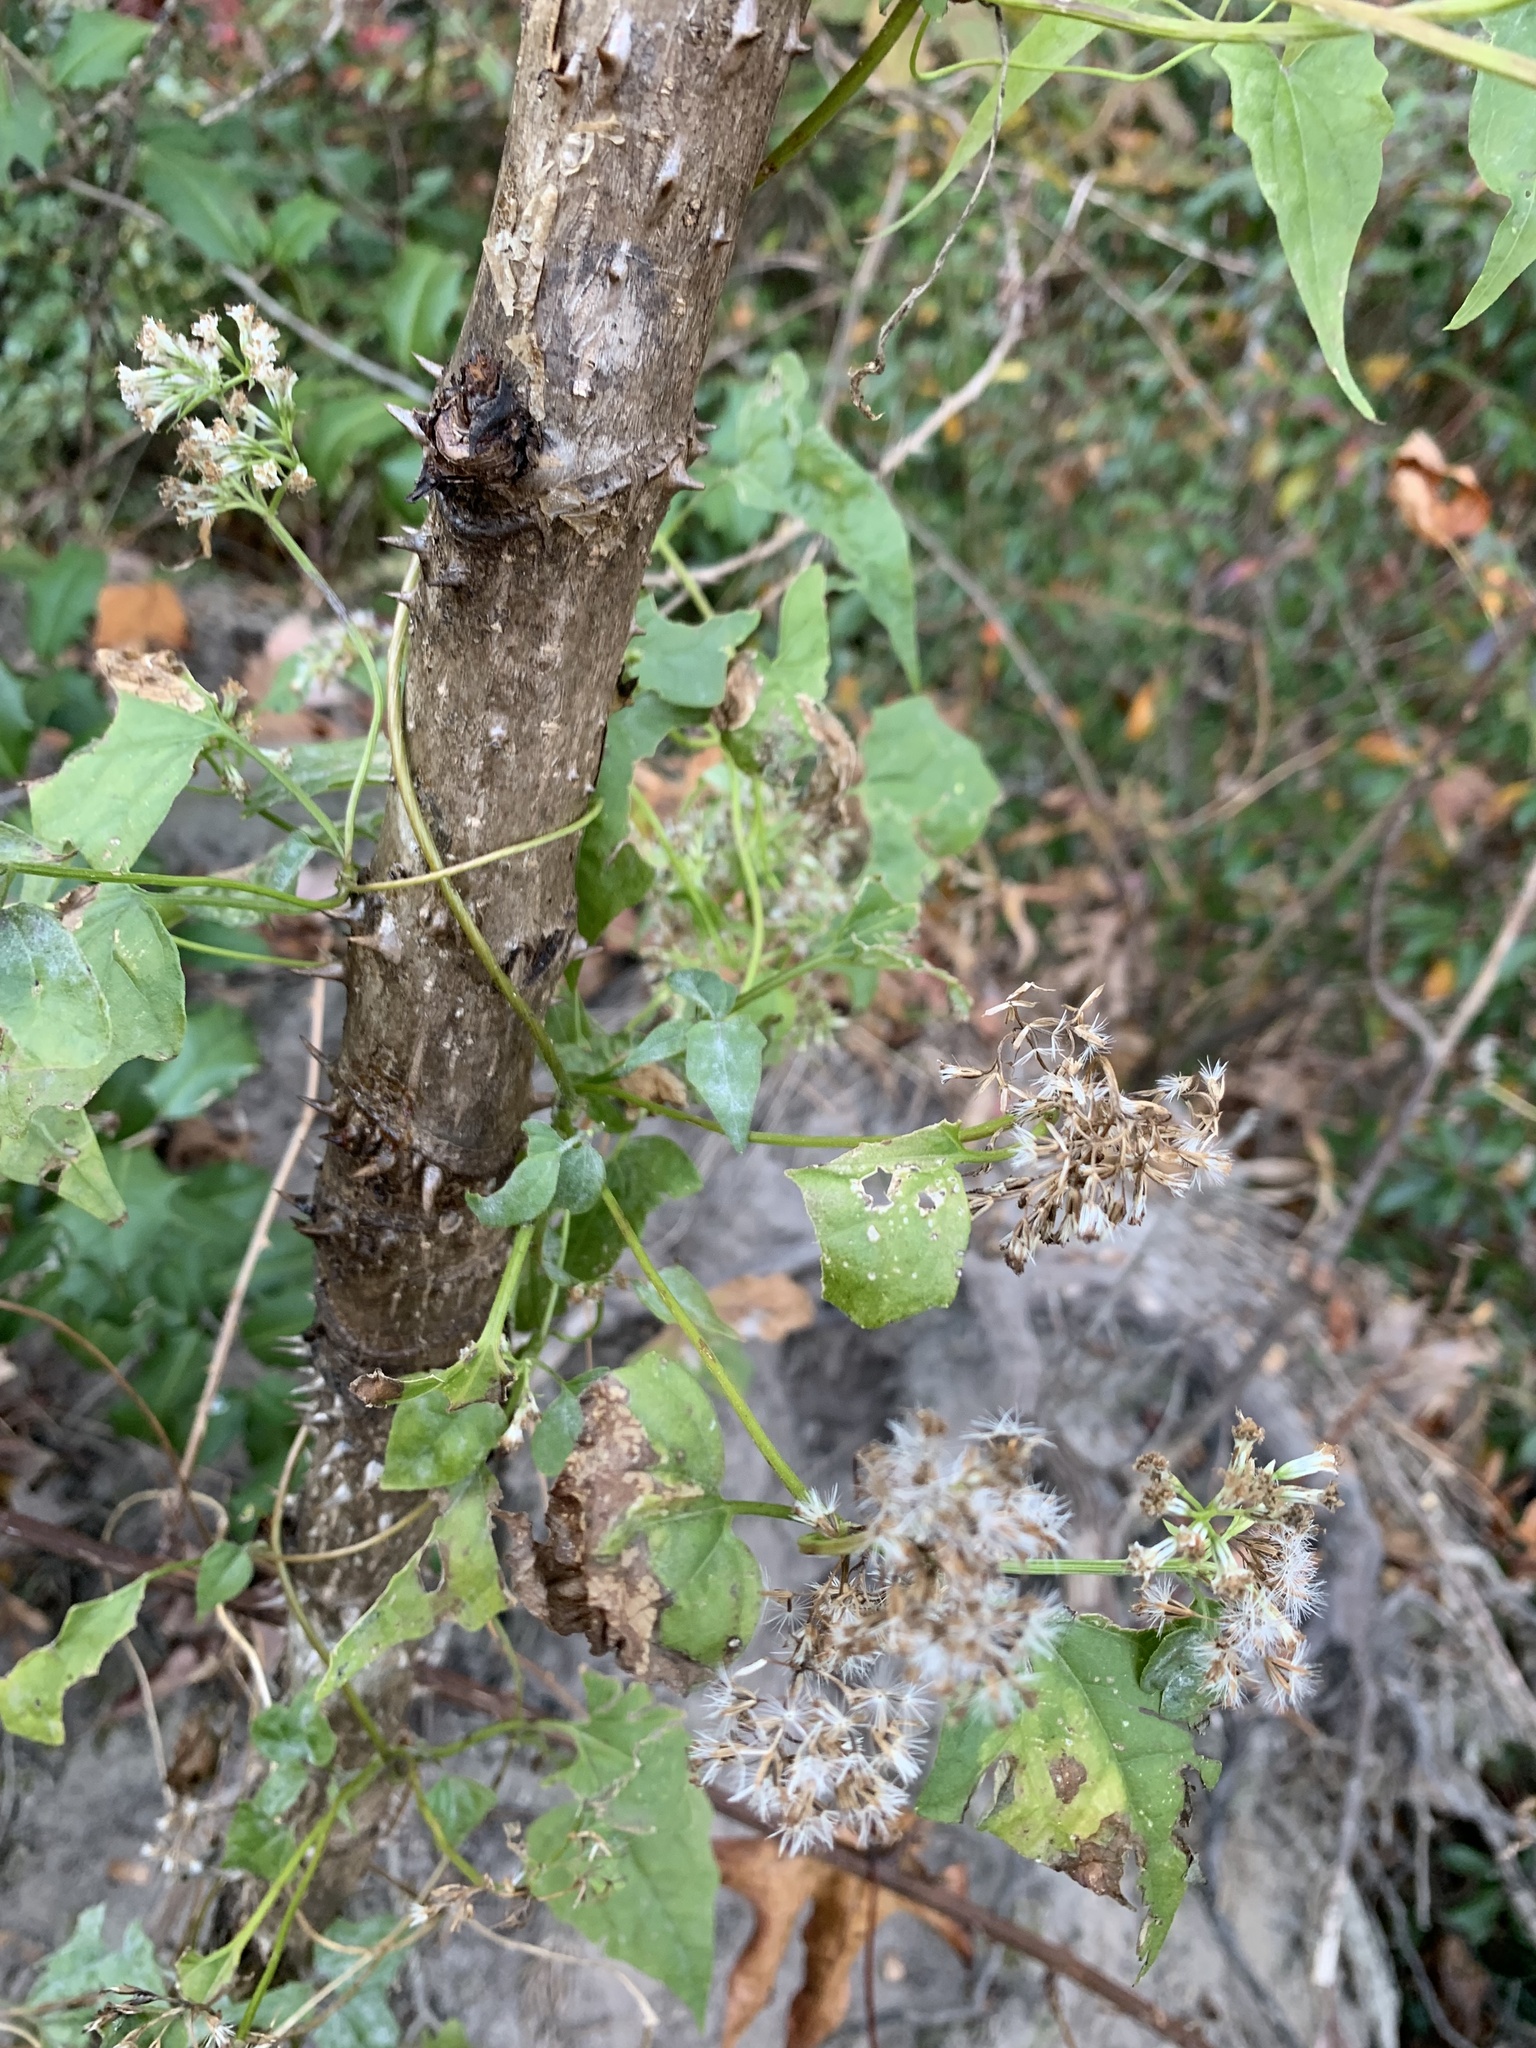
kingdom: Plantae
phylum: Tracheophyta
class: Magnoliopsida
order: Asterales
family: Asteraceae
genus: Mikania
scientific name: Mikania scandens
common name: Climbing hempvine
